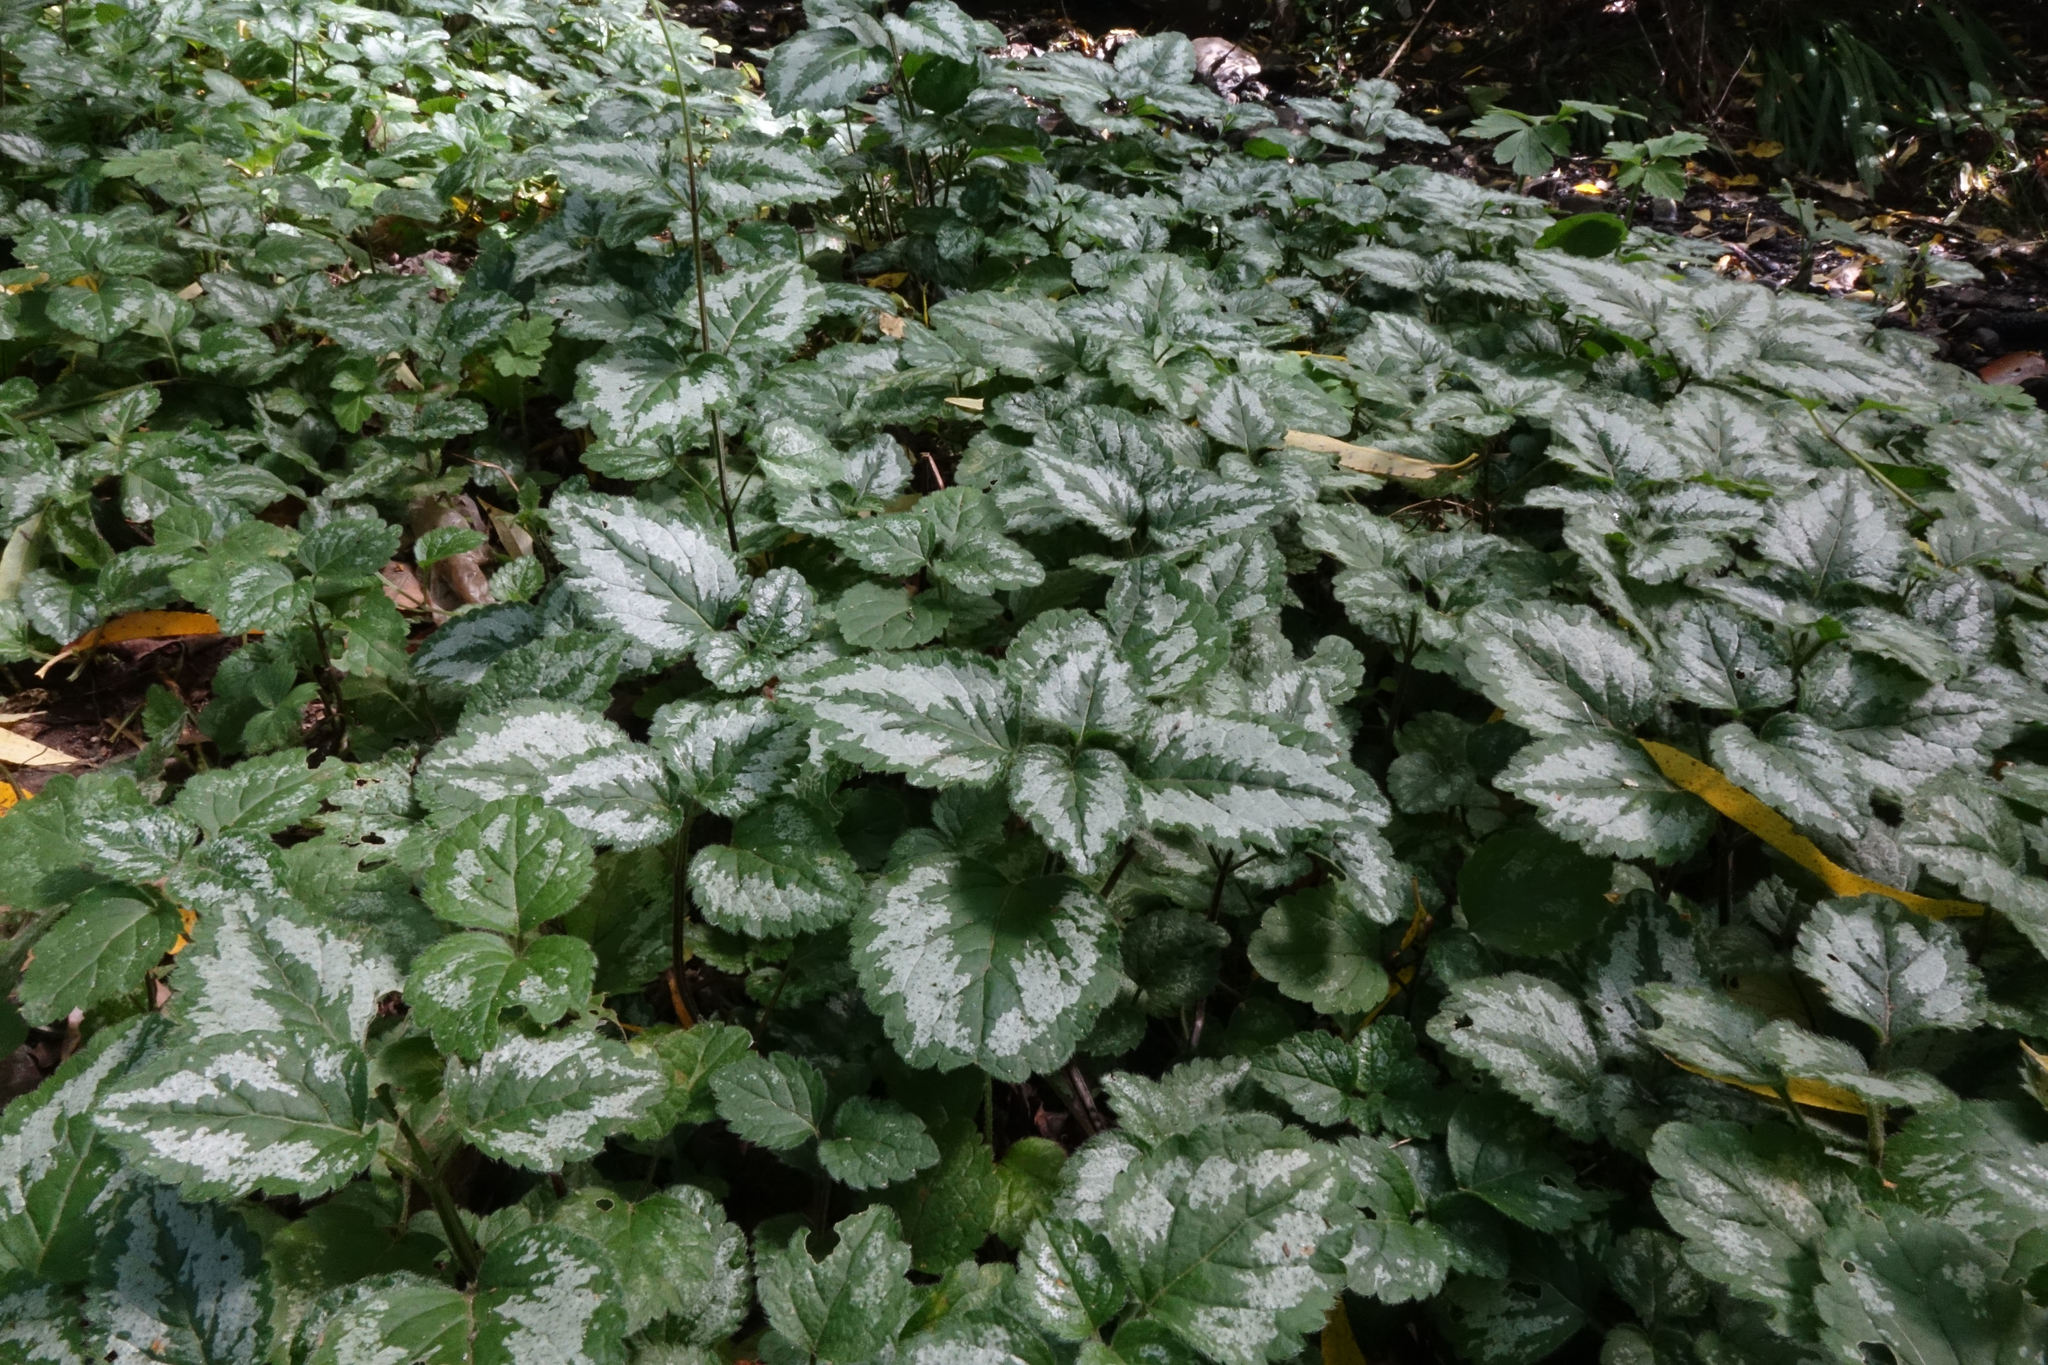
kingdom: Plantae
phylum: Tracheophyta
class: Magnoliopsida
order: Lamiales
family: Lamiaceae
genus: Lamium
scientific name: Lamium galeobdolon
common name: Yellow archangel
